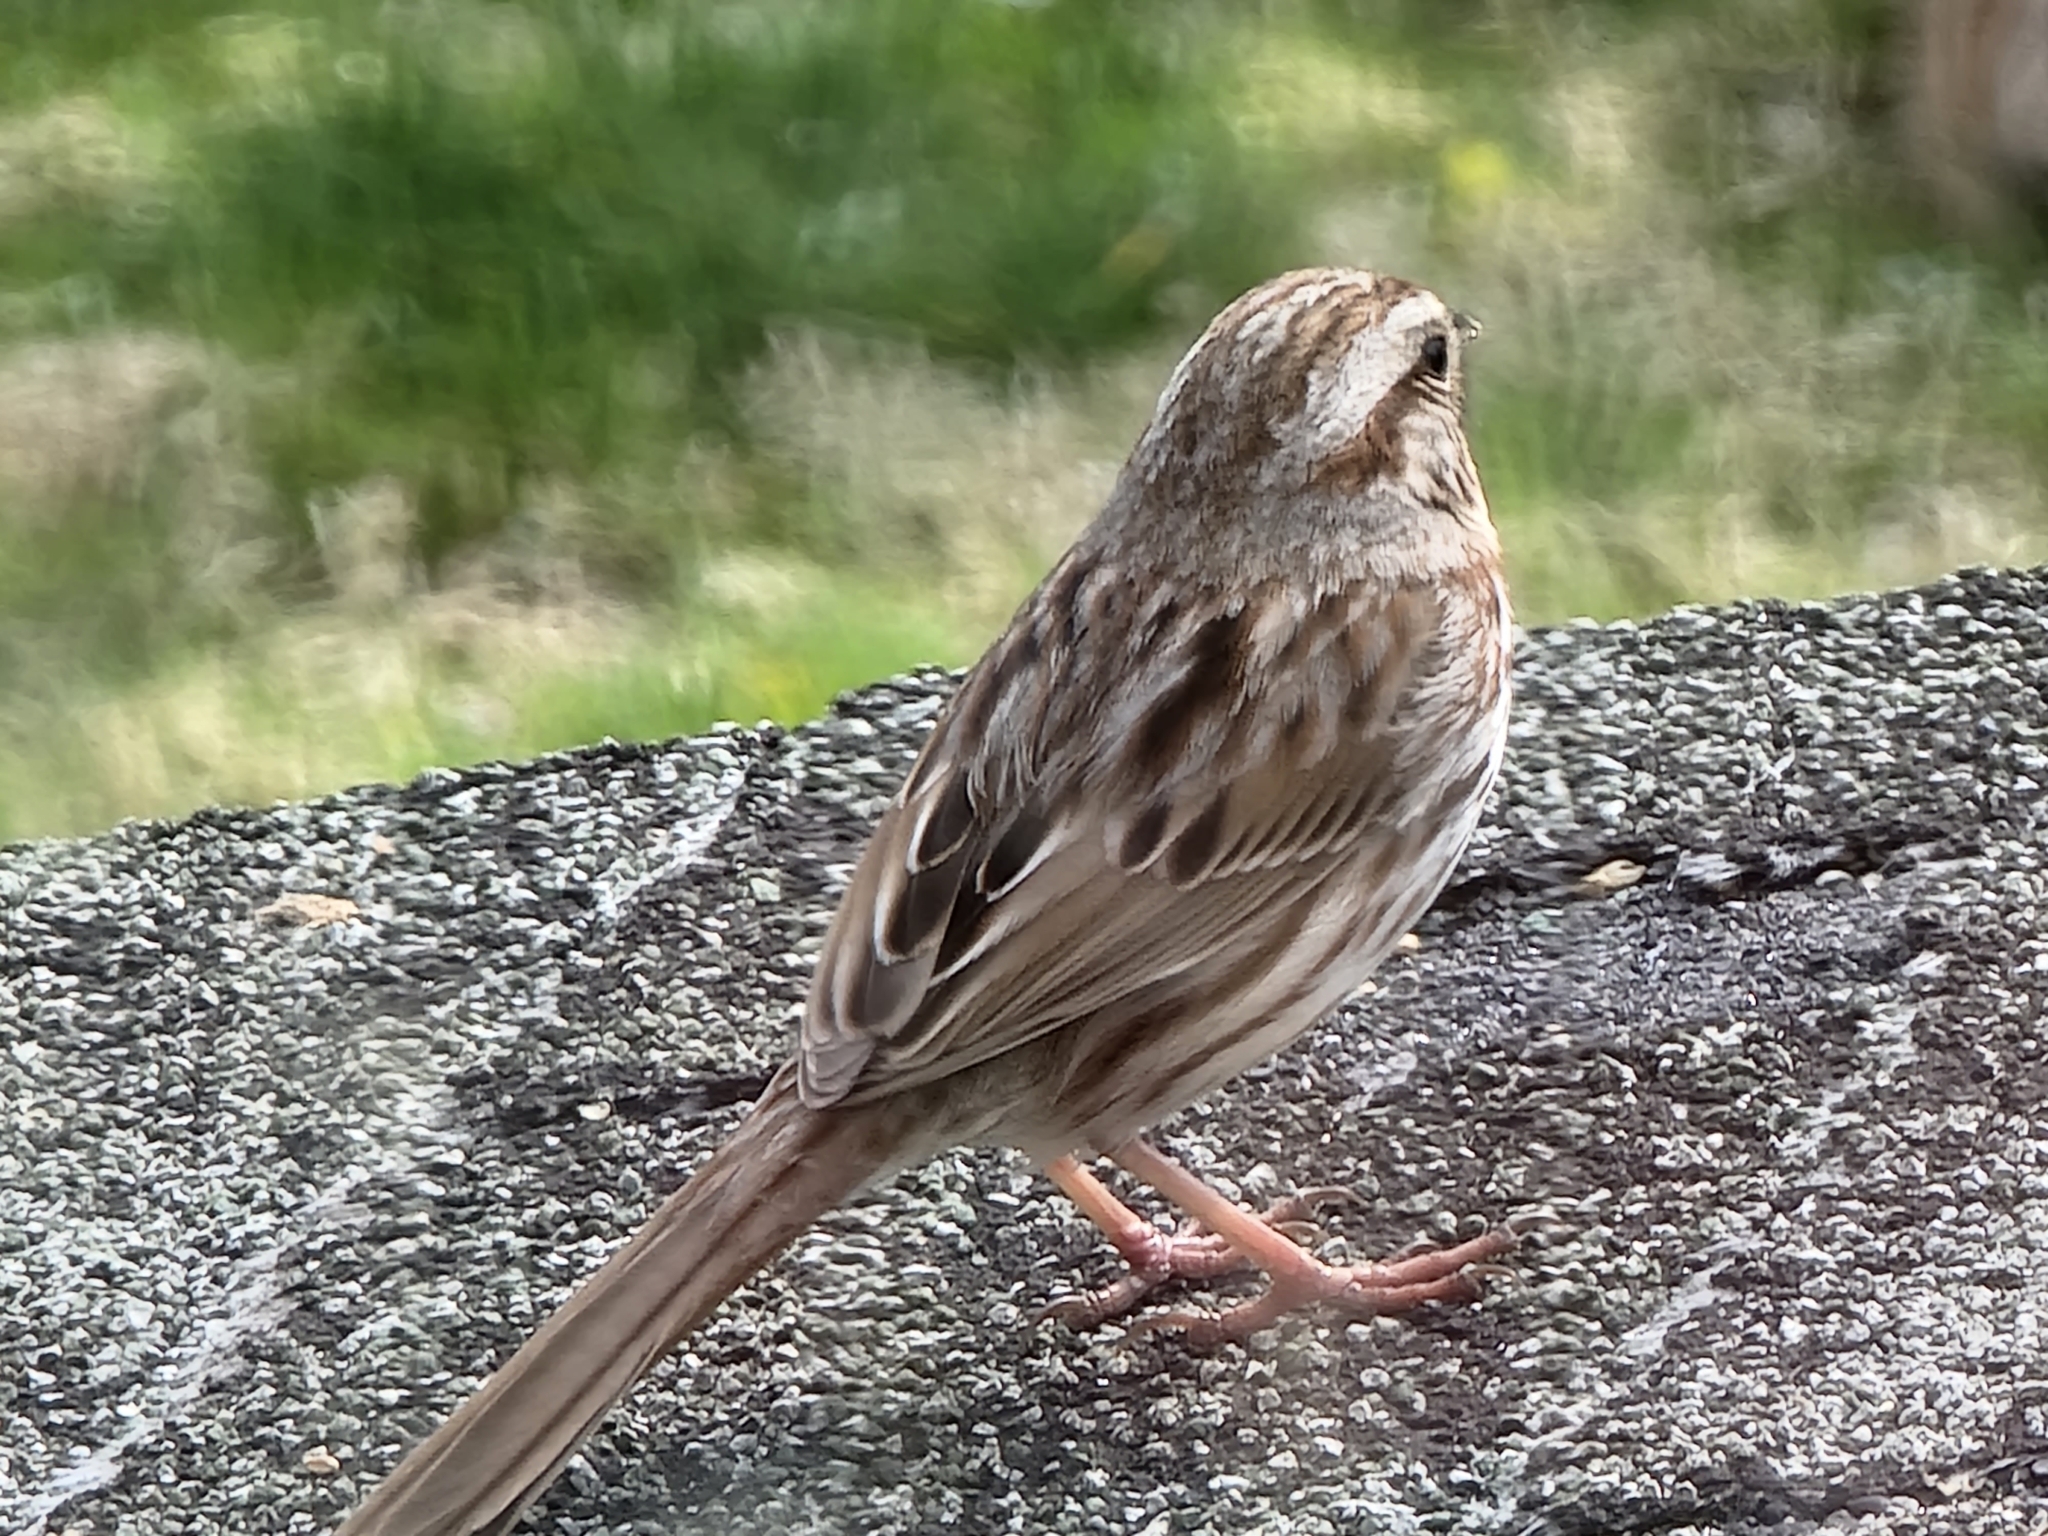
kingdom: Animalia
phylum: Chordata
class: Aves
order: Passeriformes
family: Passerellidae
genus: Melospiza
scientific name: Melospiza melodia
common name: Song sparrow
